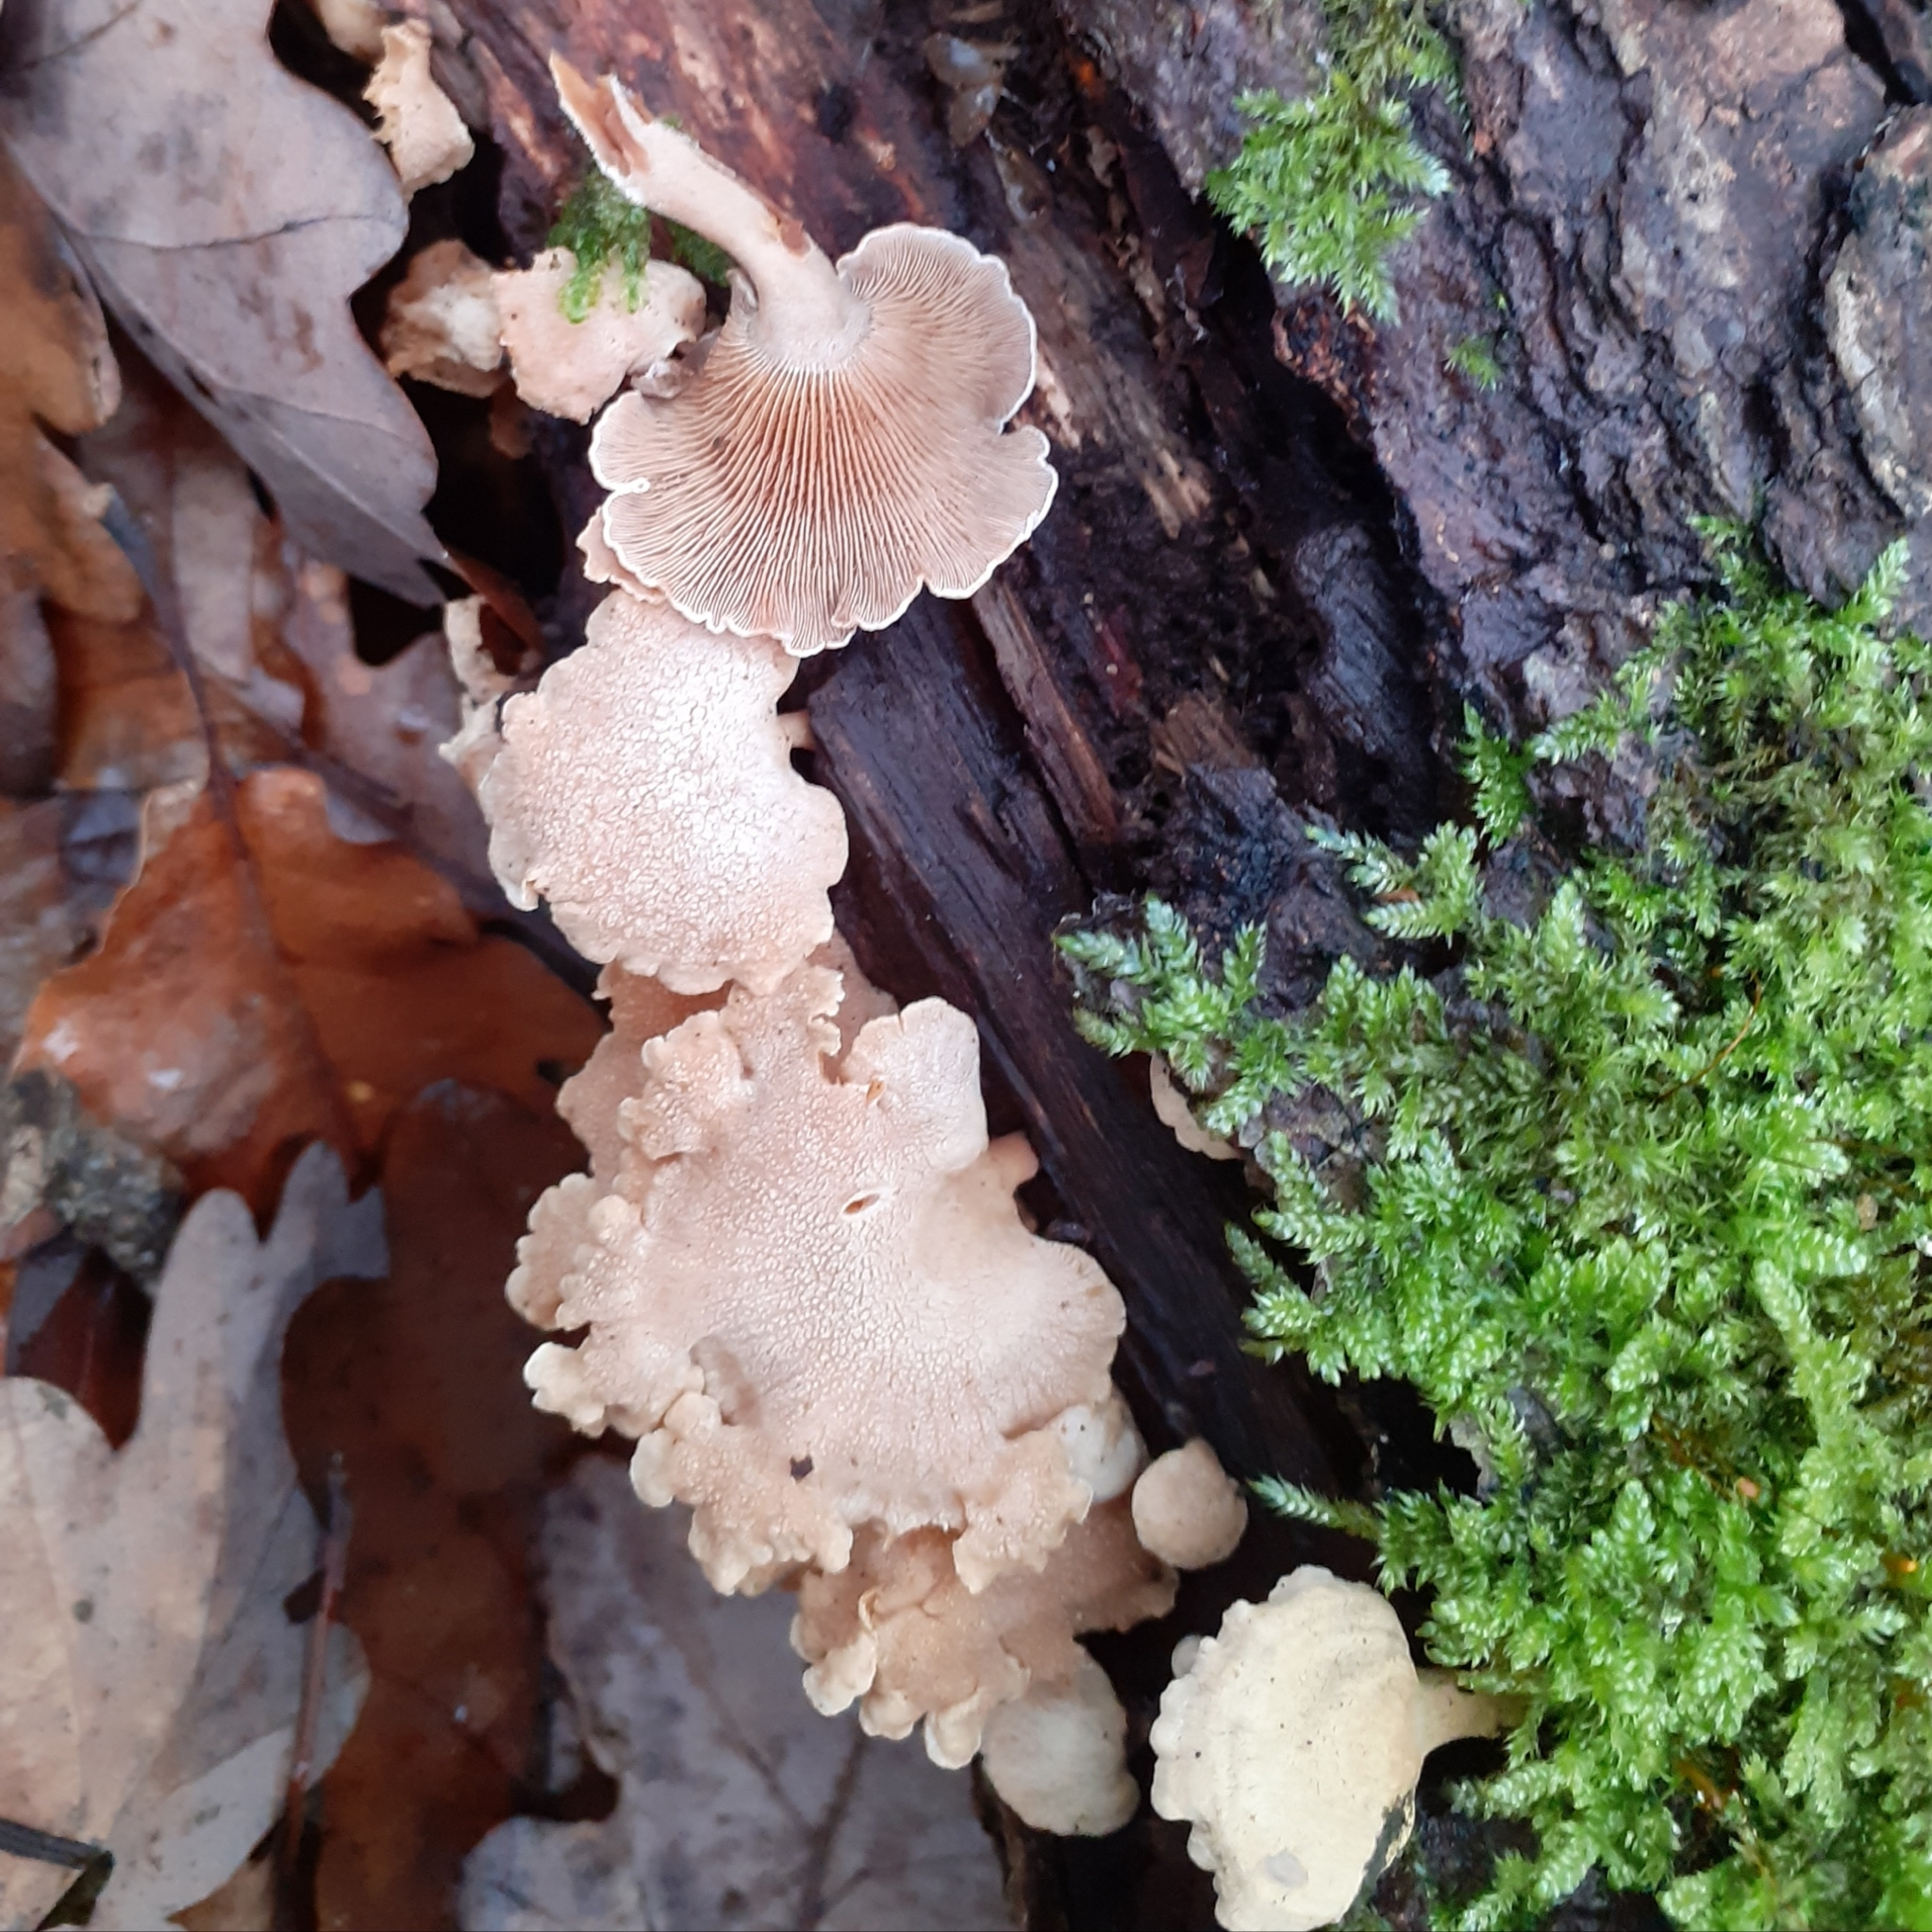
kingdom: Fungi
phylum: Basidiomycota
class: Agaricomycetes
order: Agaricales
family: Mycenaceae
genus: Panellus
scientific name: Panellus stipticus
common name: Bitter oysterling
